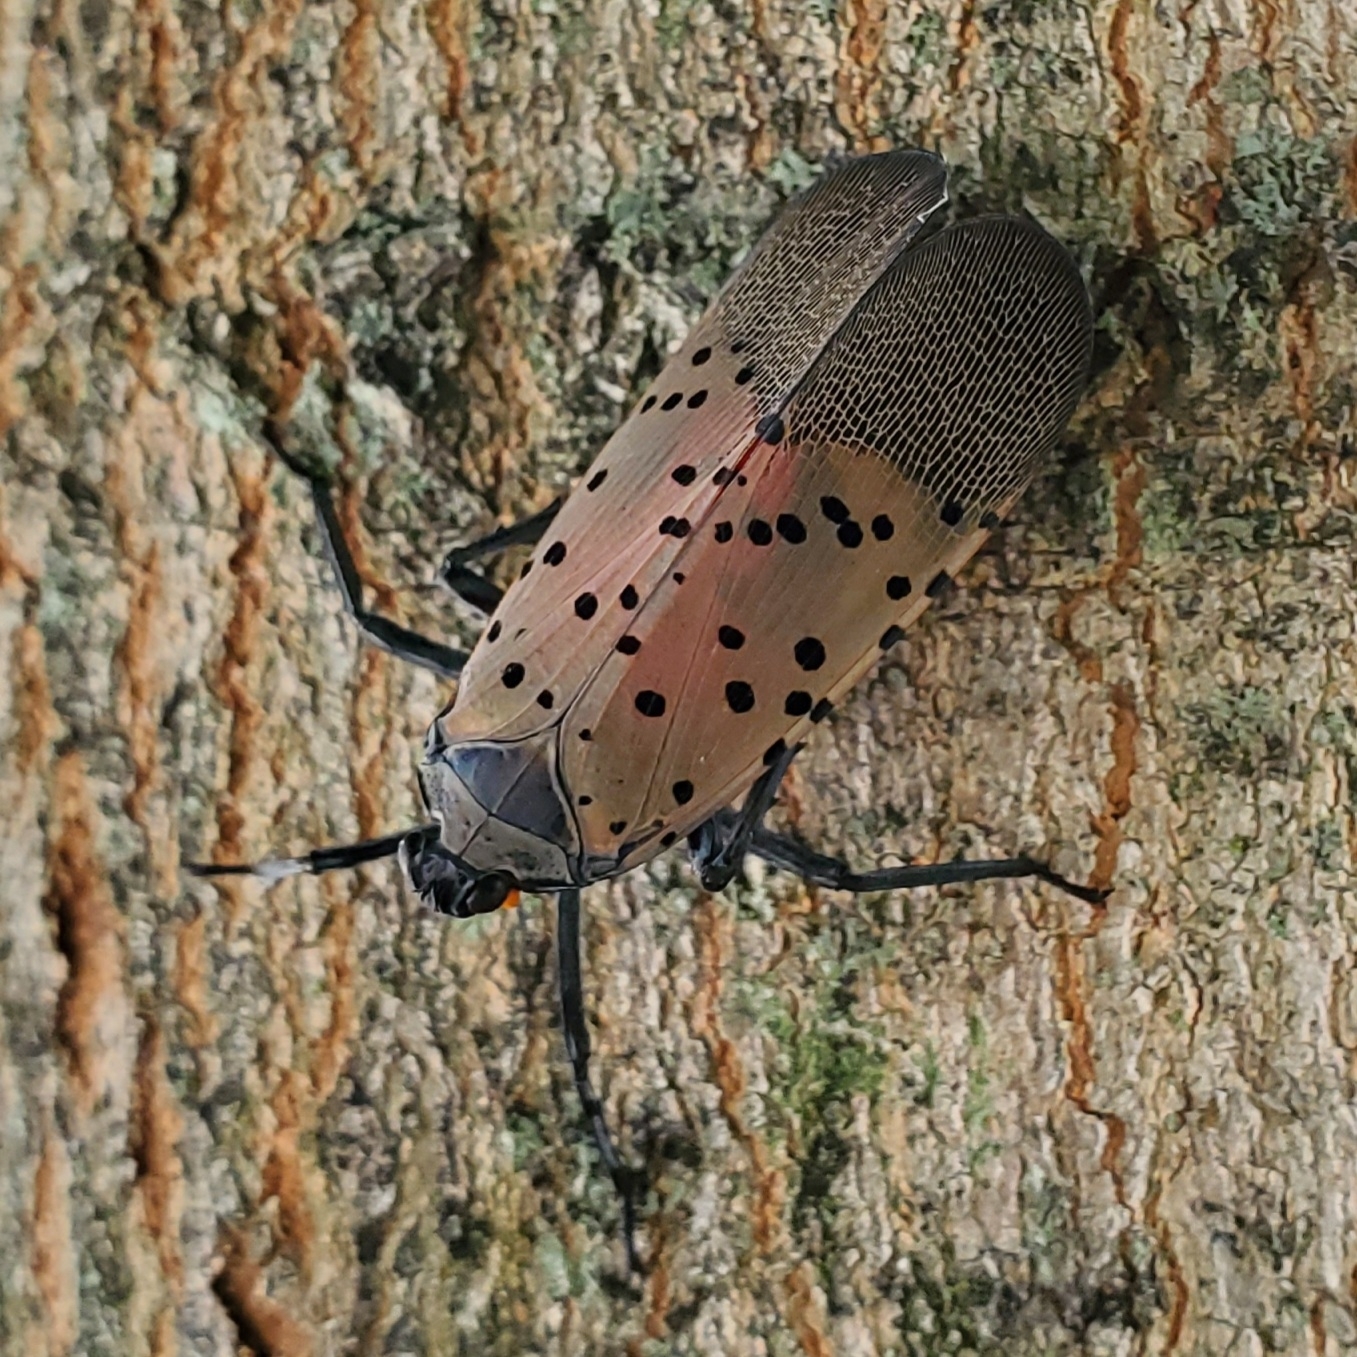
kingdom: Animalia
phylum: Arthropoda
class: Insecta
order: Hemiptera
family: Fulgoridae
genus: Lycorma
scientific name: Lycorma delicatula
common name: Spotted lanternfly
